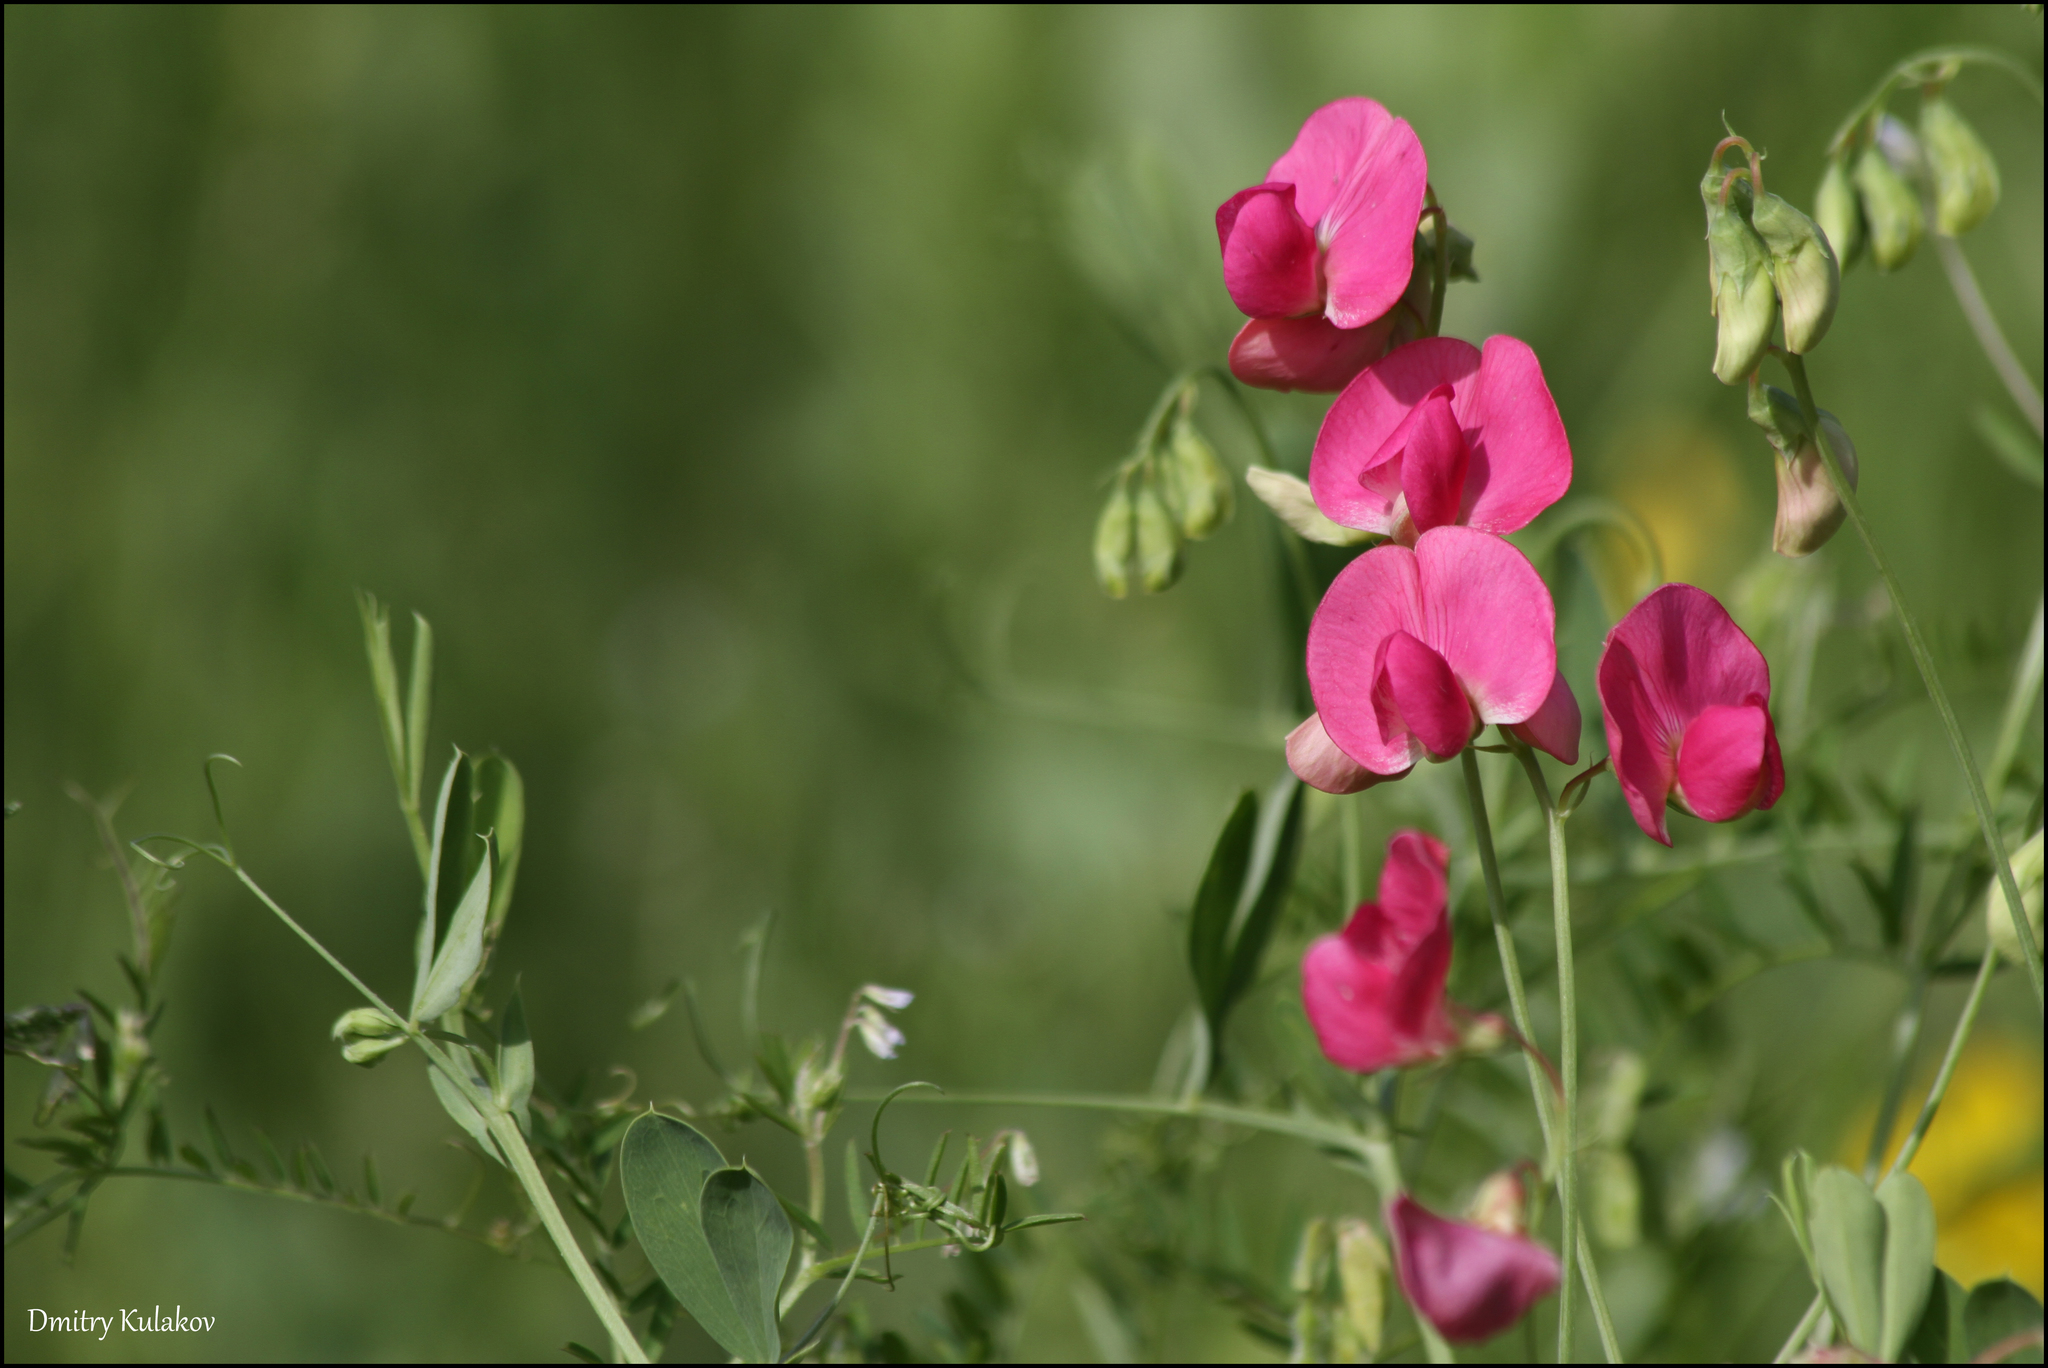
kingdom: Plantae
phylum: Tracheophyta
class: Magnoliopsida
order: Fabales
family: Fabaceae
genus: Lathyrus
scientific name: Lathyrus tuberosus
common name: Tuberous pea
